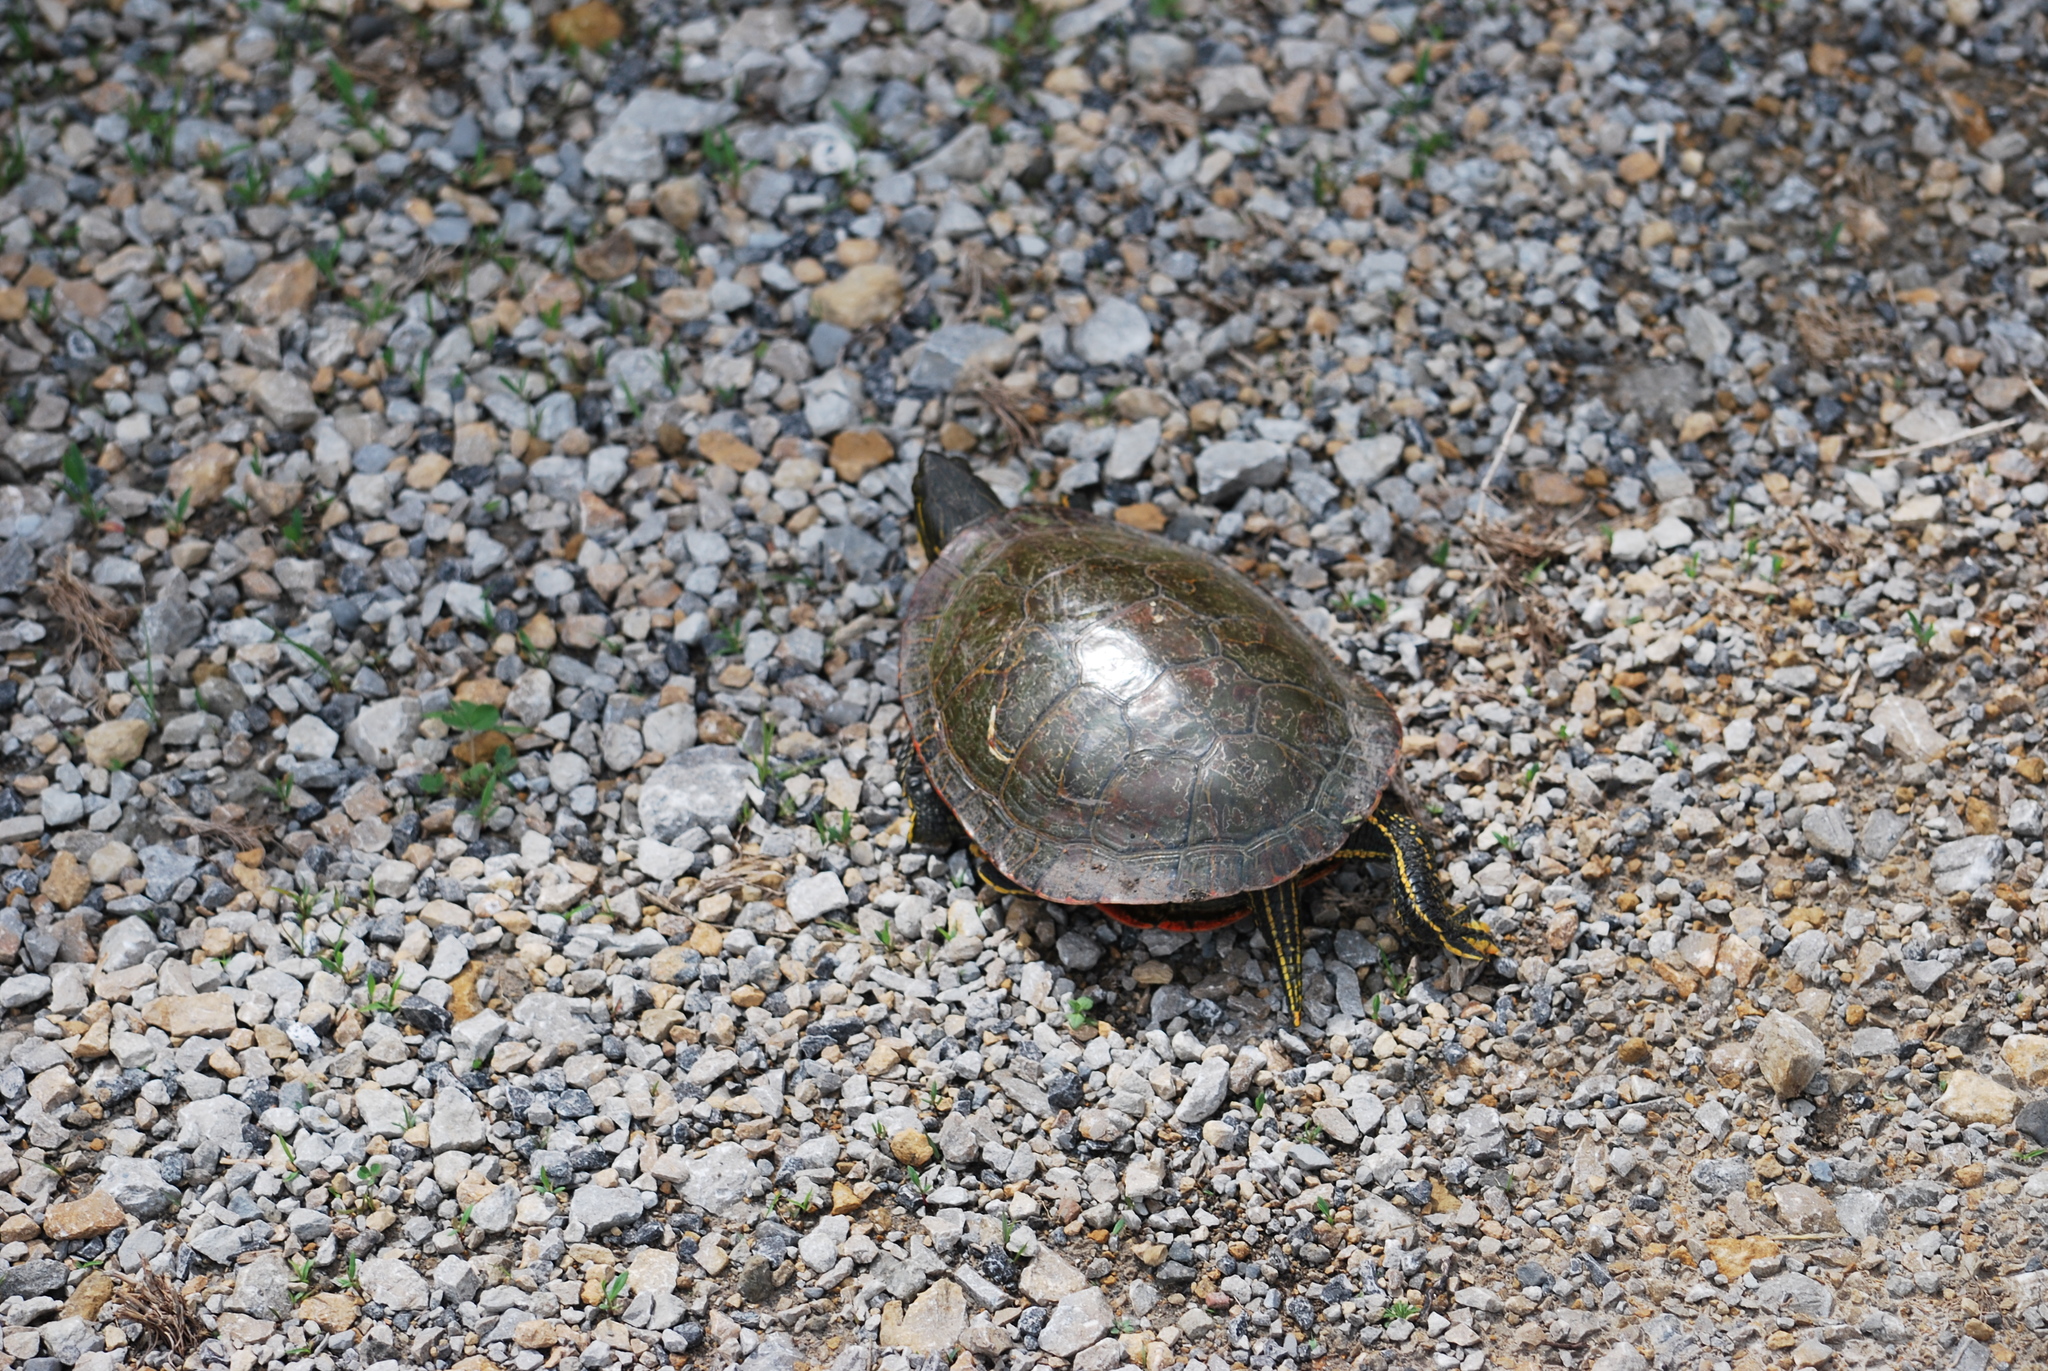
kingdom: Animalia
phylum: Chordata
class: Testudines
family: Emydidae
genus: Chrysemys
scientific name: Chrysemys picta
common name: Painted turtle
